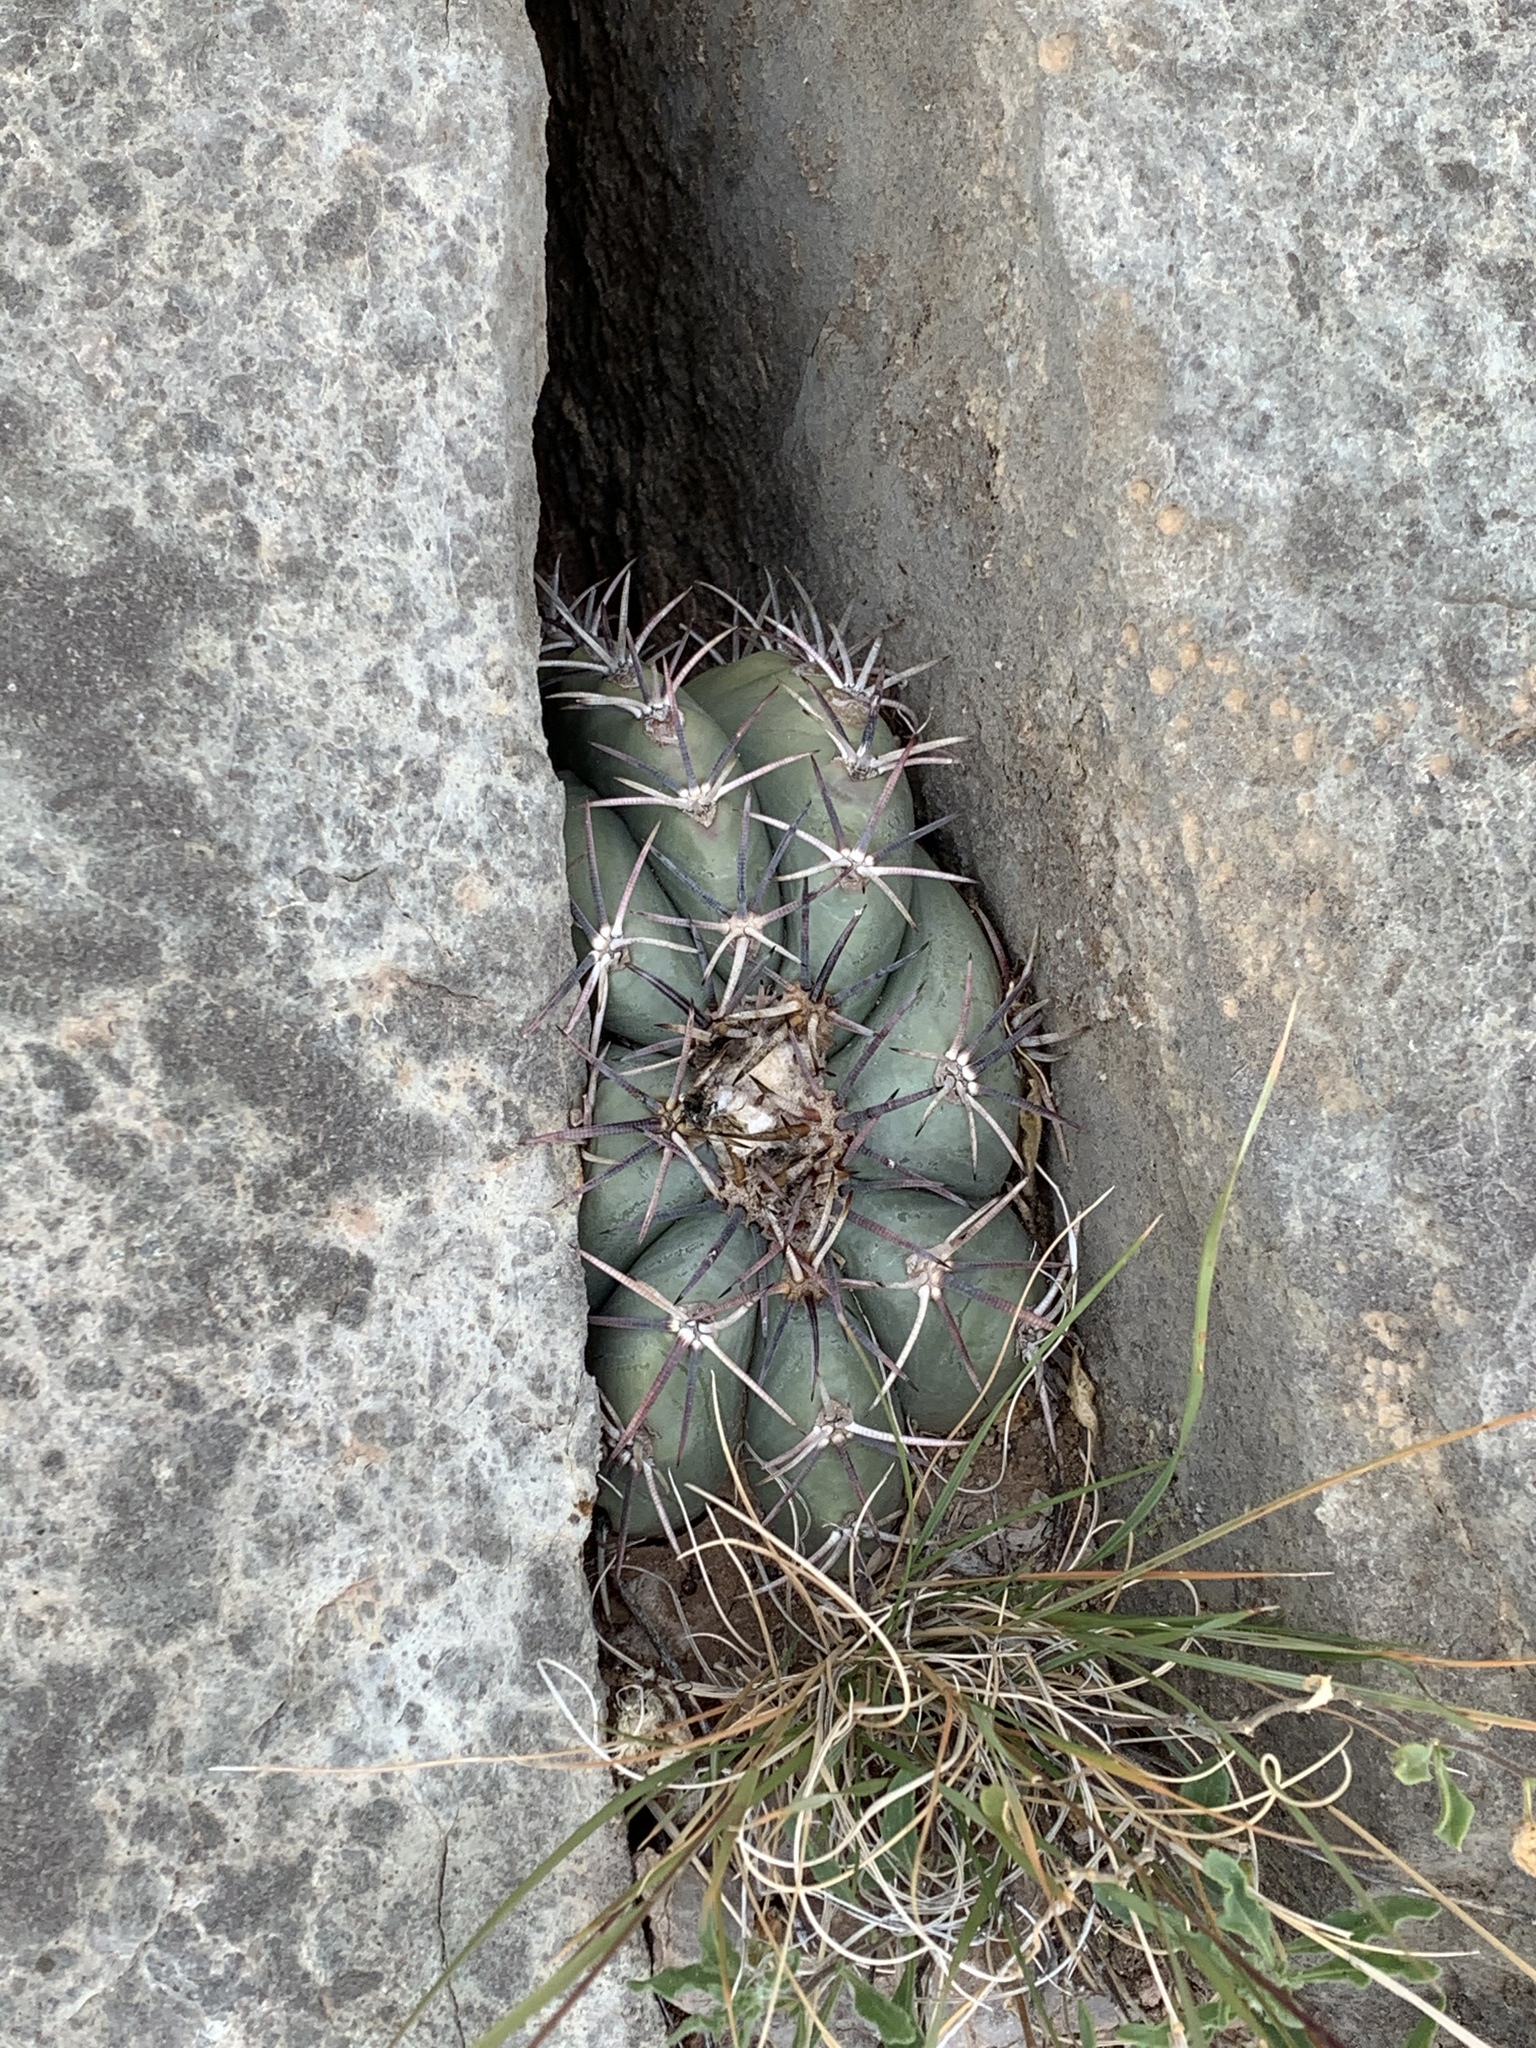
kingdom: Plantae
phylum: Tracheophyta
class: Magnoliopsida
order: Caryophyllales
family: Cactaceae
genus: Echinocactus
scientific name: Echinocactus horizonthalonius
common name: Devilshead
